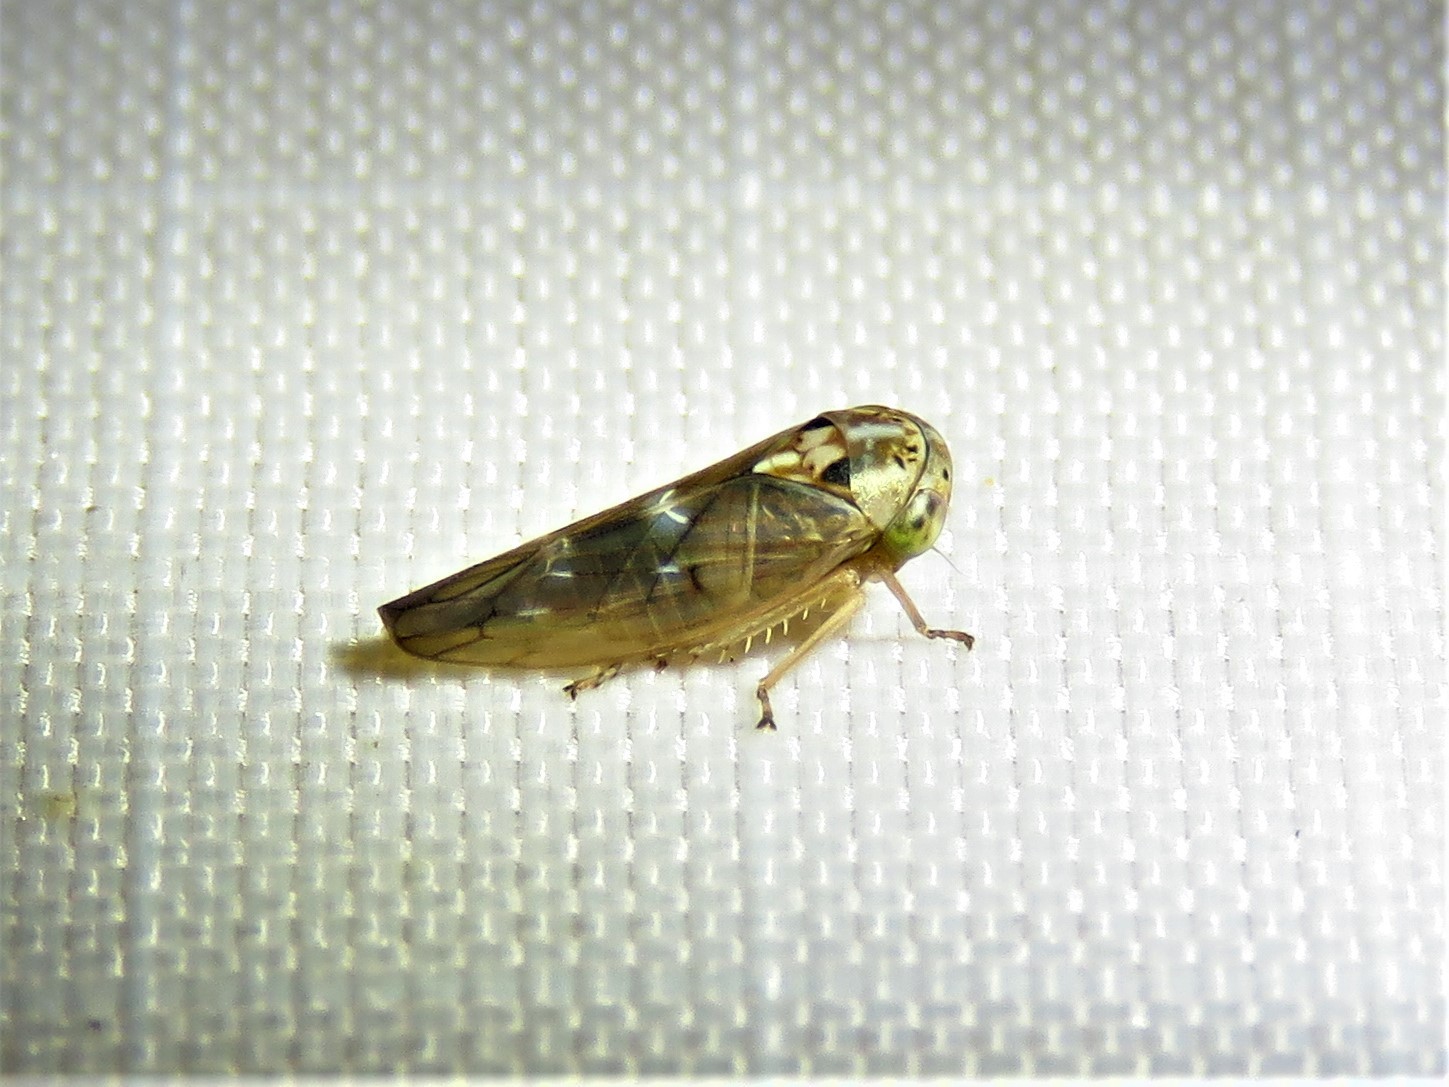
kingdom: Animalia
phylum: Arthropoda
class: Insecta
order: Hemiptera
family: Cicadellidae
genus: Idiocerus
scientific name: Idiocerus albolinea
